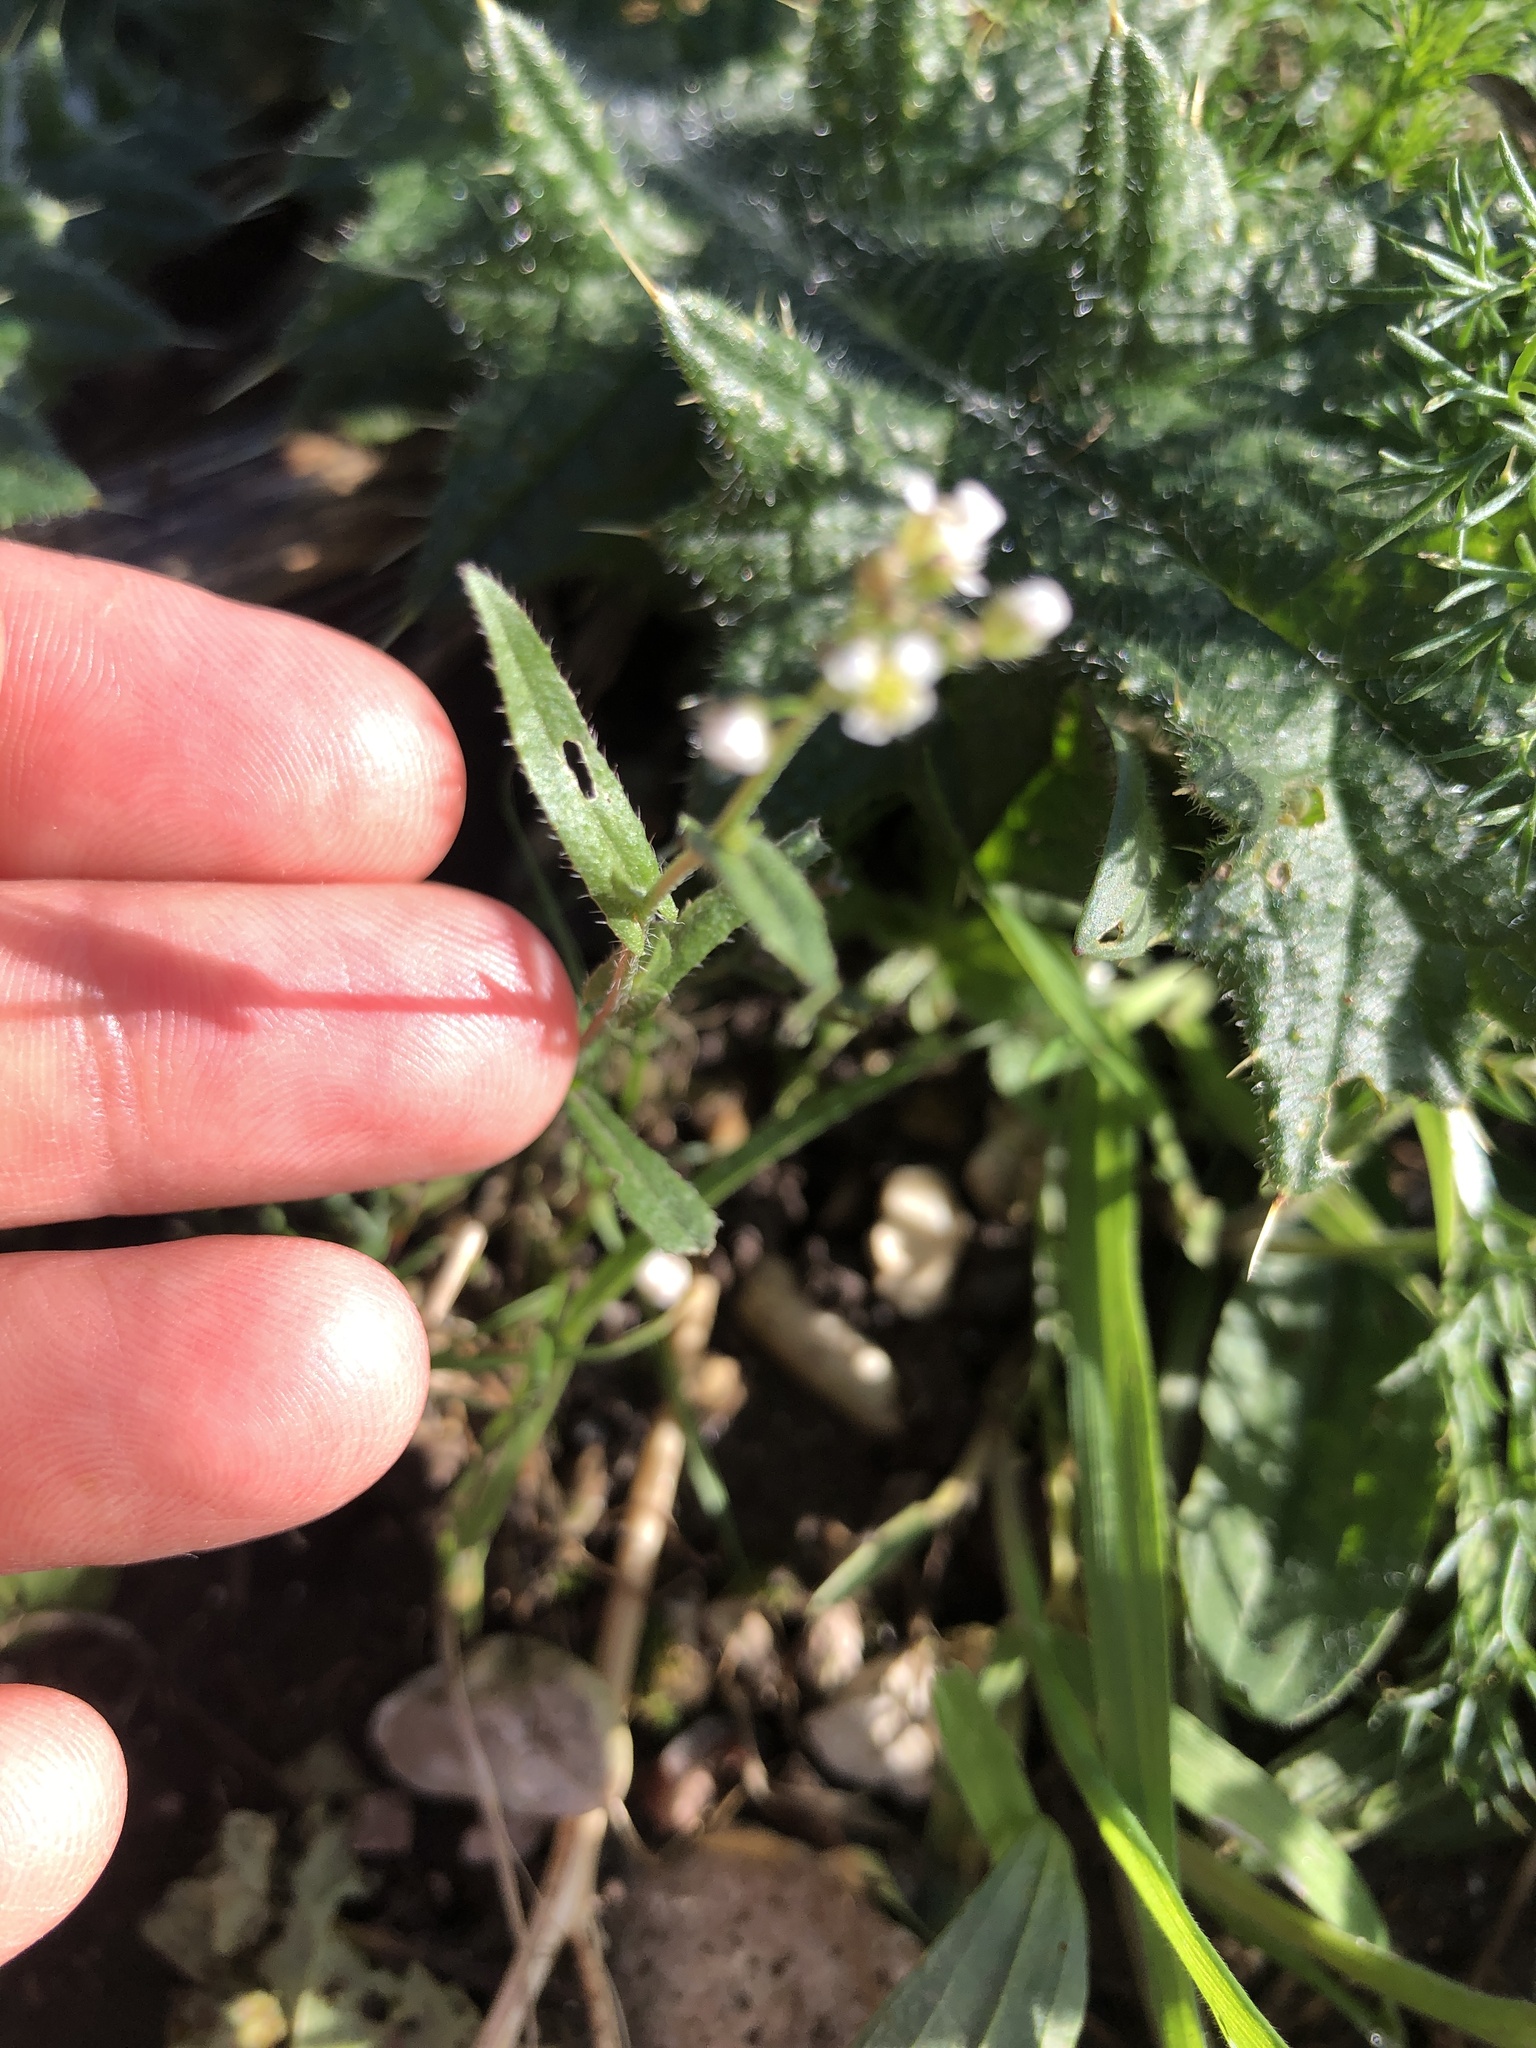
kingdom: Plantae
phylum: Tracheophyta
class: Magnoliopsida
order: Brassicales
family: Brassicaceae
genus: Capsella
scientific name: Capsella bursa-pastoris
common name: Shepherd's purse
